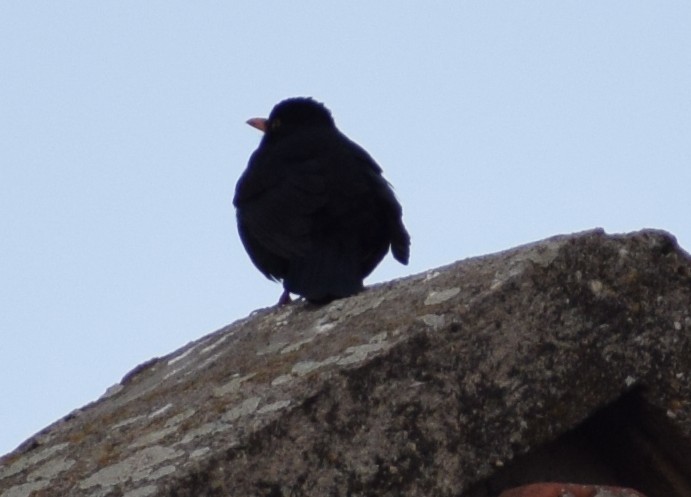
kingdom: Animalia
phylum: Chordata
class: Aves
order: Passeriformes
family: Turdidae
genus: Turdus
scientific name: Turdus merula
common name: Common blackbird
